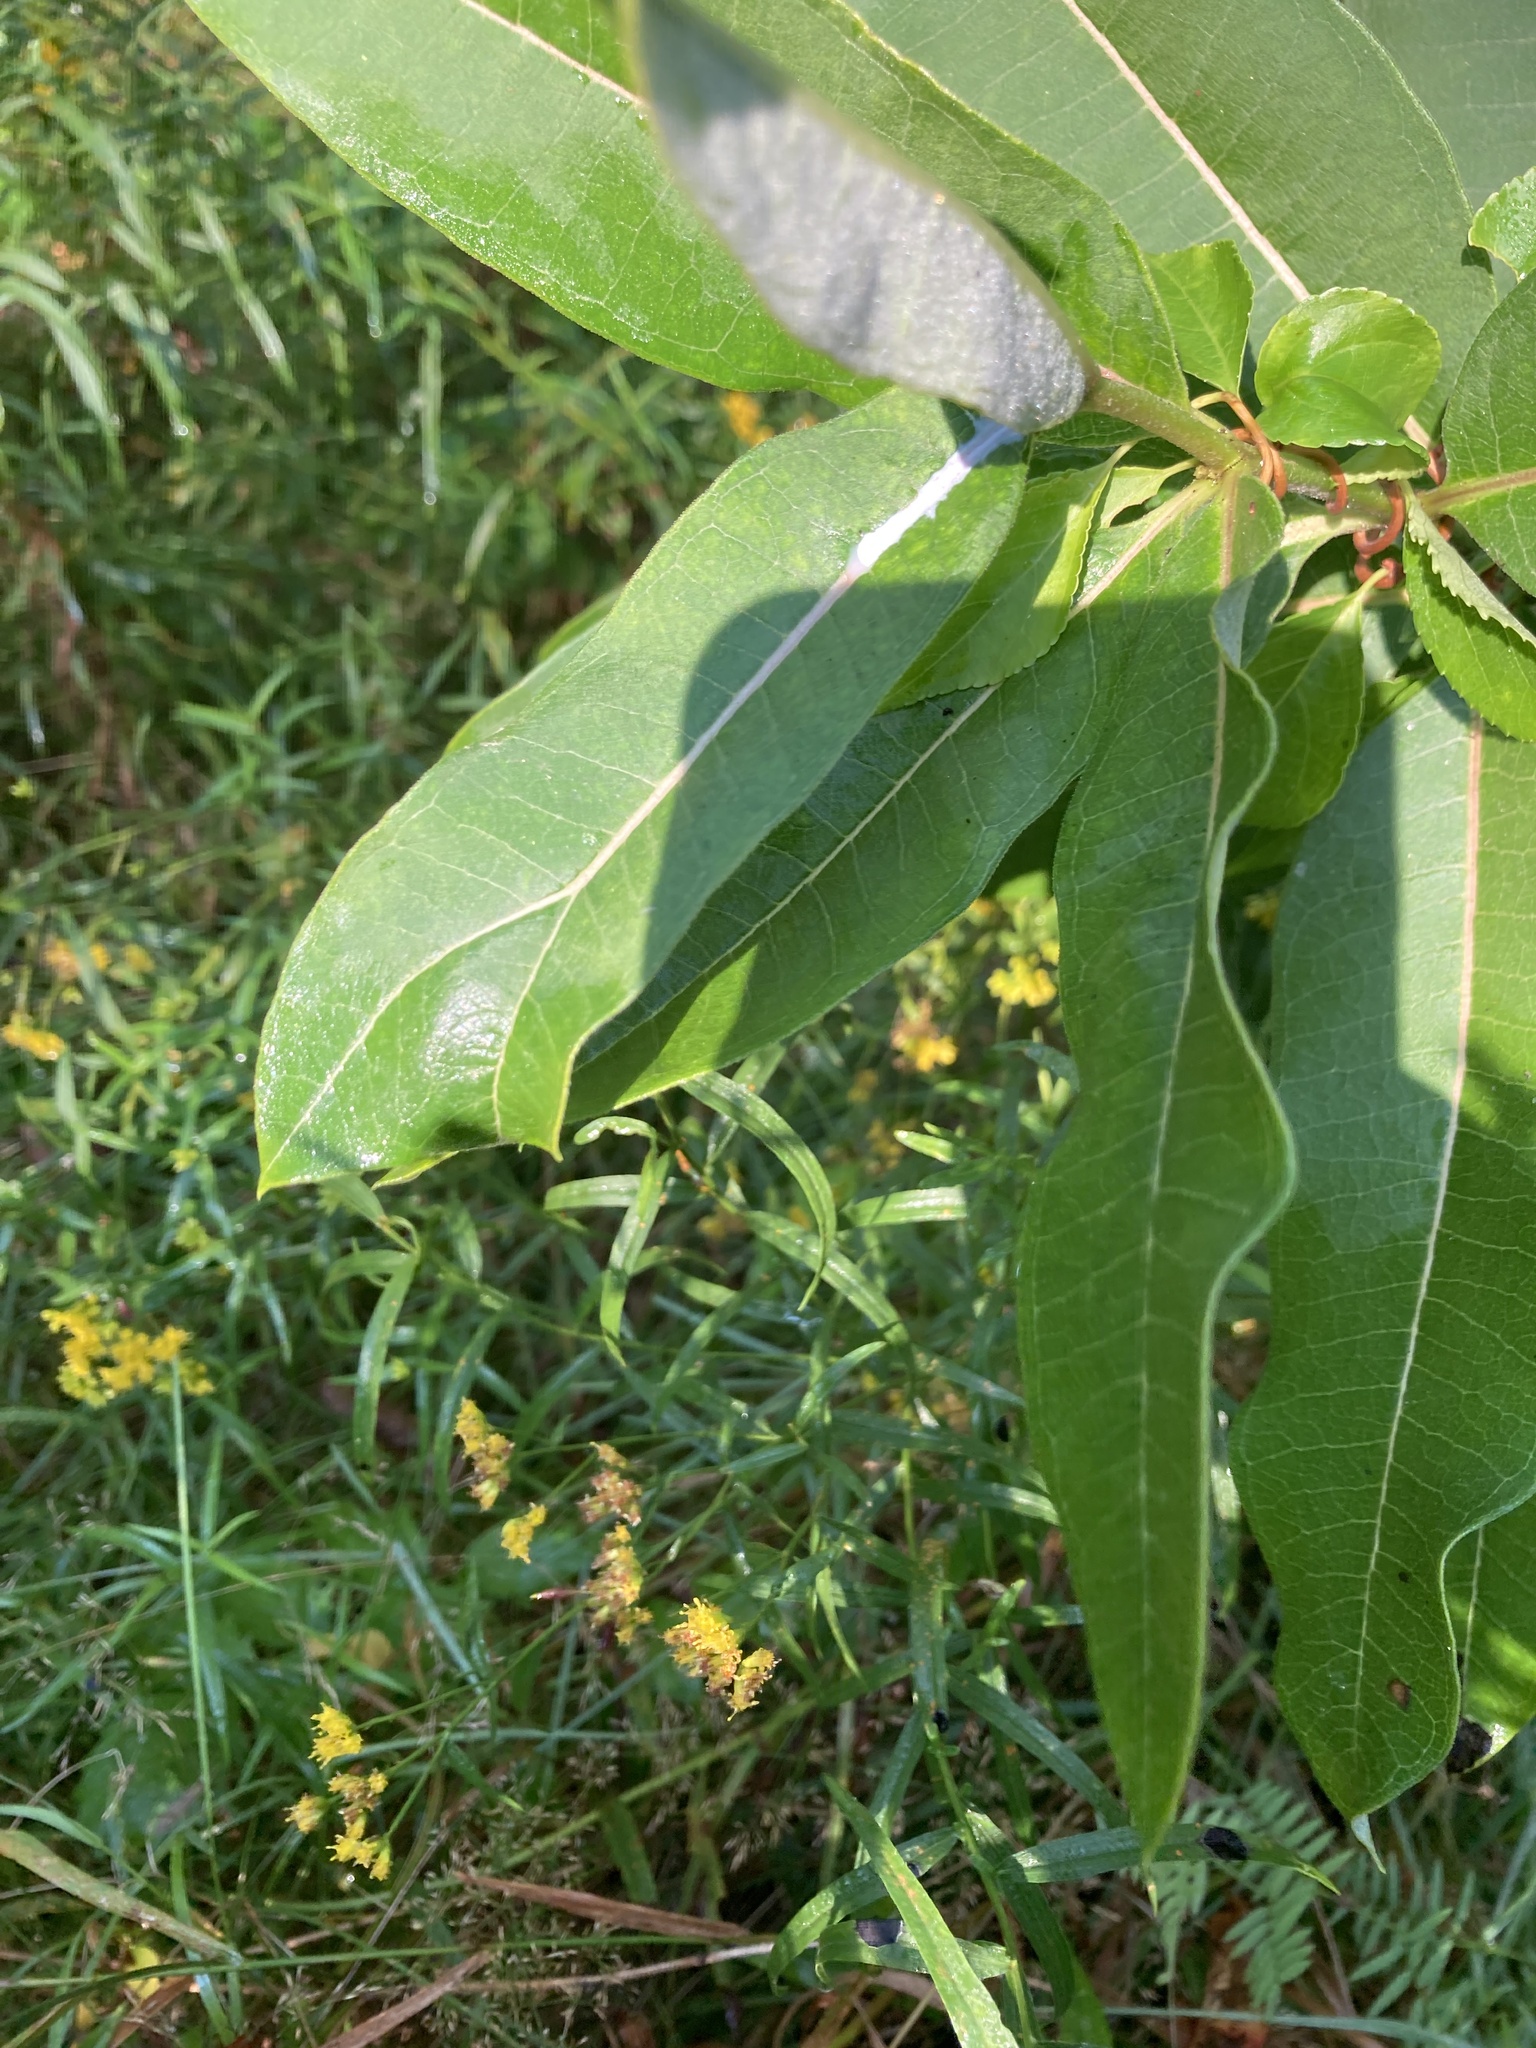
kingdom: Plantae
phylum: Tracheophyta
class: Magnoliopsida
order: Gentianales
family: Apocynaceae
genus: Asclepias
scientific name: Asclepias syriaca
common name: Common milkweed
